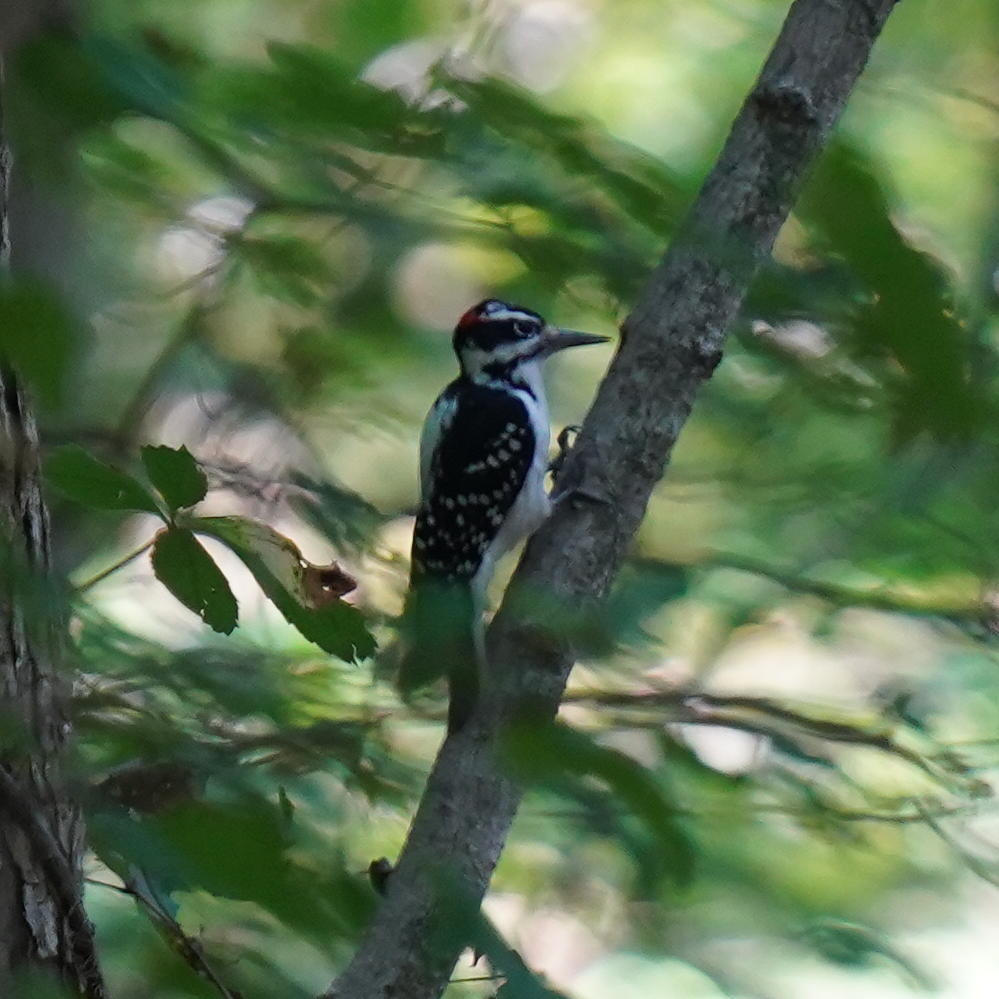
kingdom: Animalia
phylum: Chordata
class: Aves
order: Piciformes
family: Picidae
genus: Leuconotopicus
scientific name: Leuconotopicus villosus
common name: Hairy woodpecker
